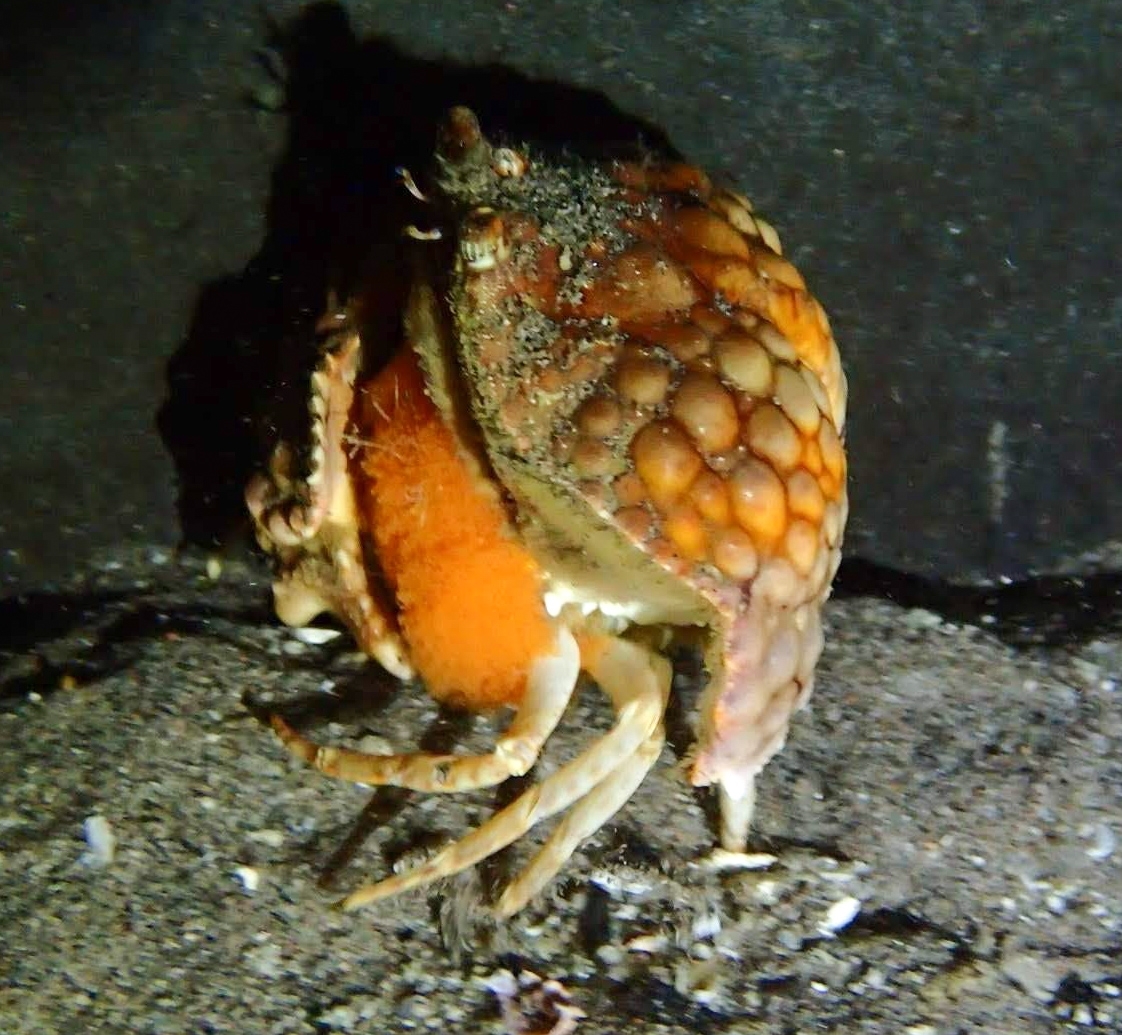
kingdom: Animalia
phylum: Arthropoda
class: Malacostraca
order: Decapoda
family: Calappidae
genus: Calappa
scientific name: Calappa capellonis
